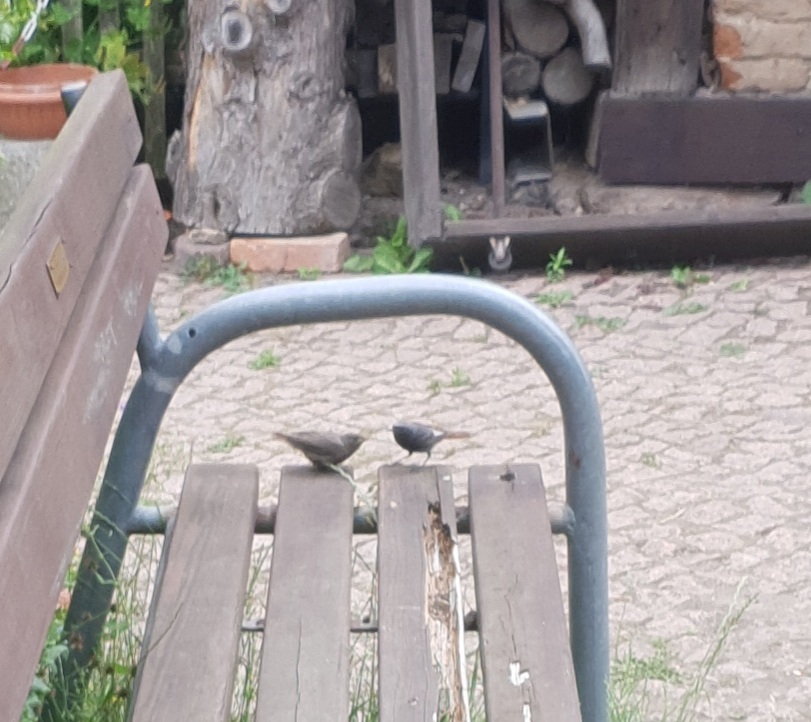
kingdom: Animalia
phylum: Chordata
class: Aves
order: Passeriformes
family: Muscicapidae
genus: Phoenicurus
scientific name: Phoenicurus ochruros
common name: Black redstart
